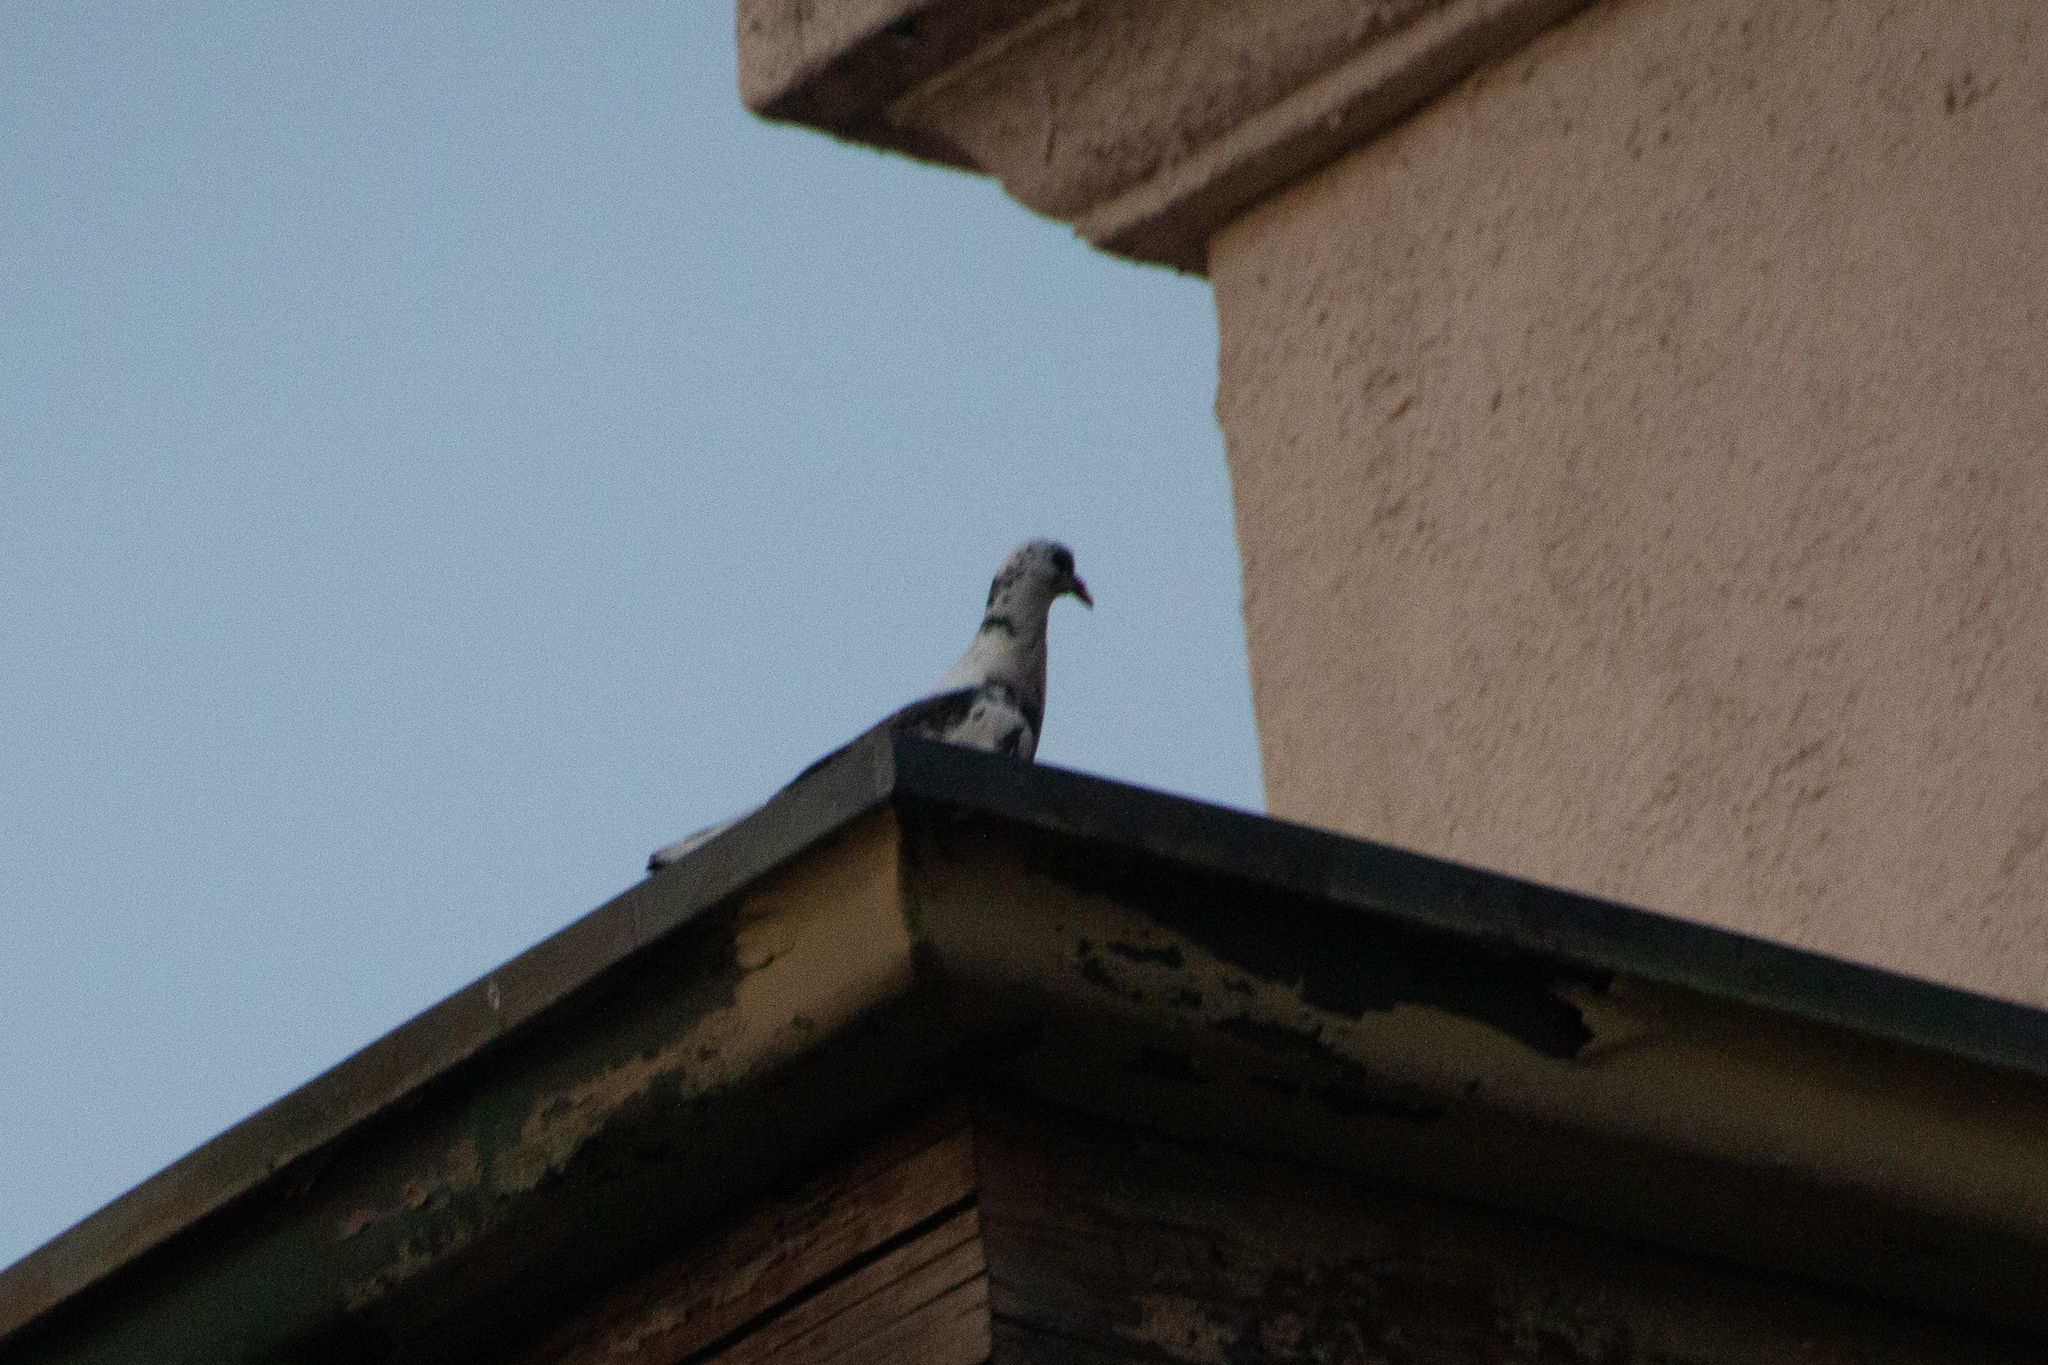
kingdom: Animalia
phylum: Chordata
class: Aves
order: Columbiformes
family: Columbidae
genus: Columba
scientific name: Columba livia
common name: Rock pigeon
